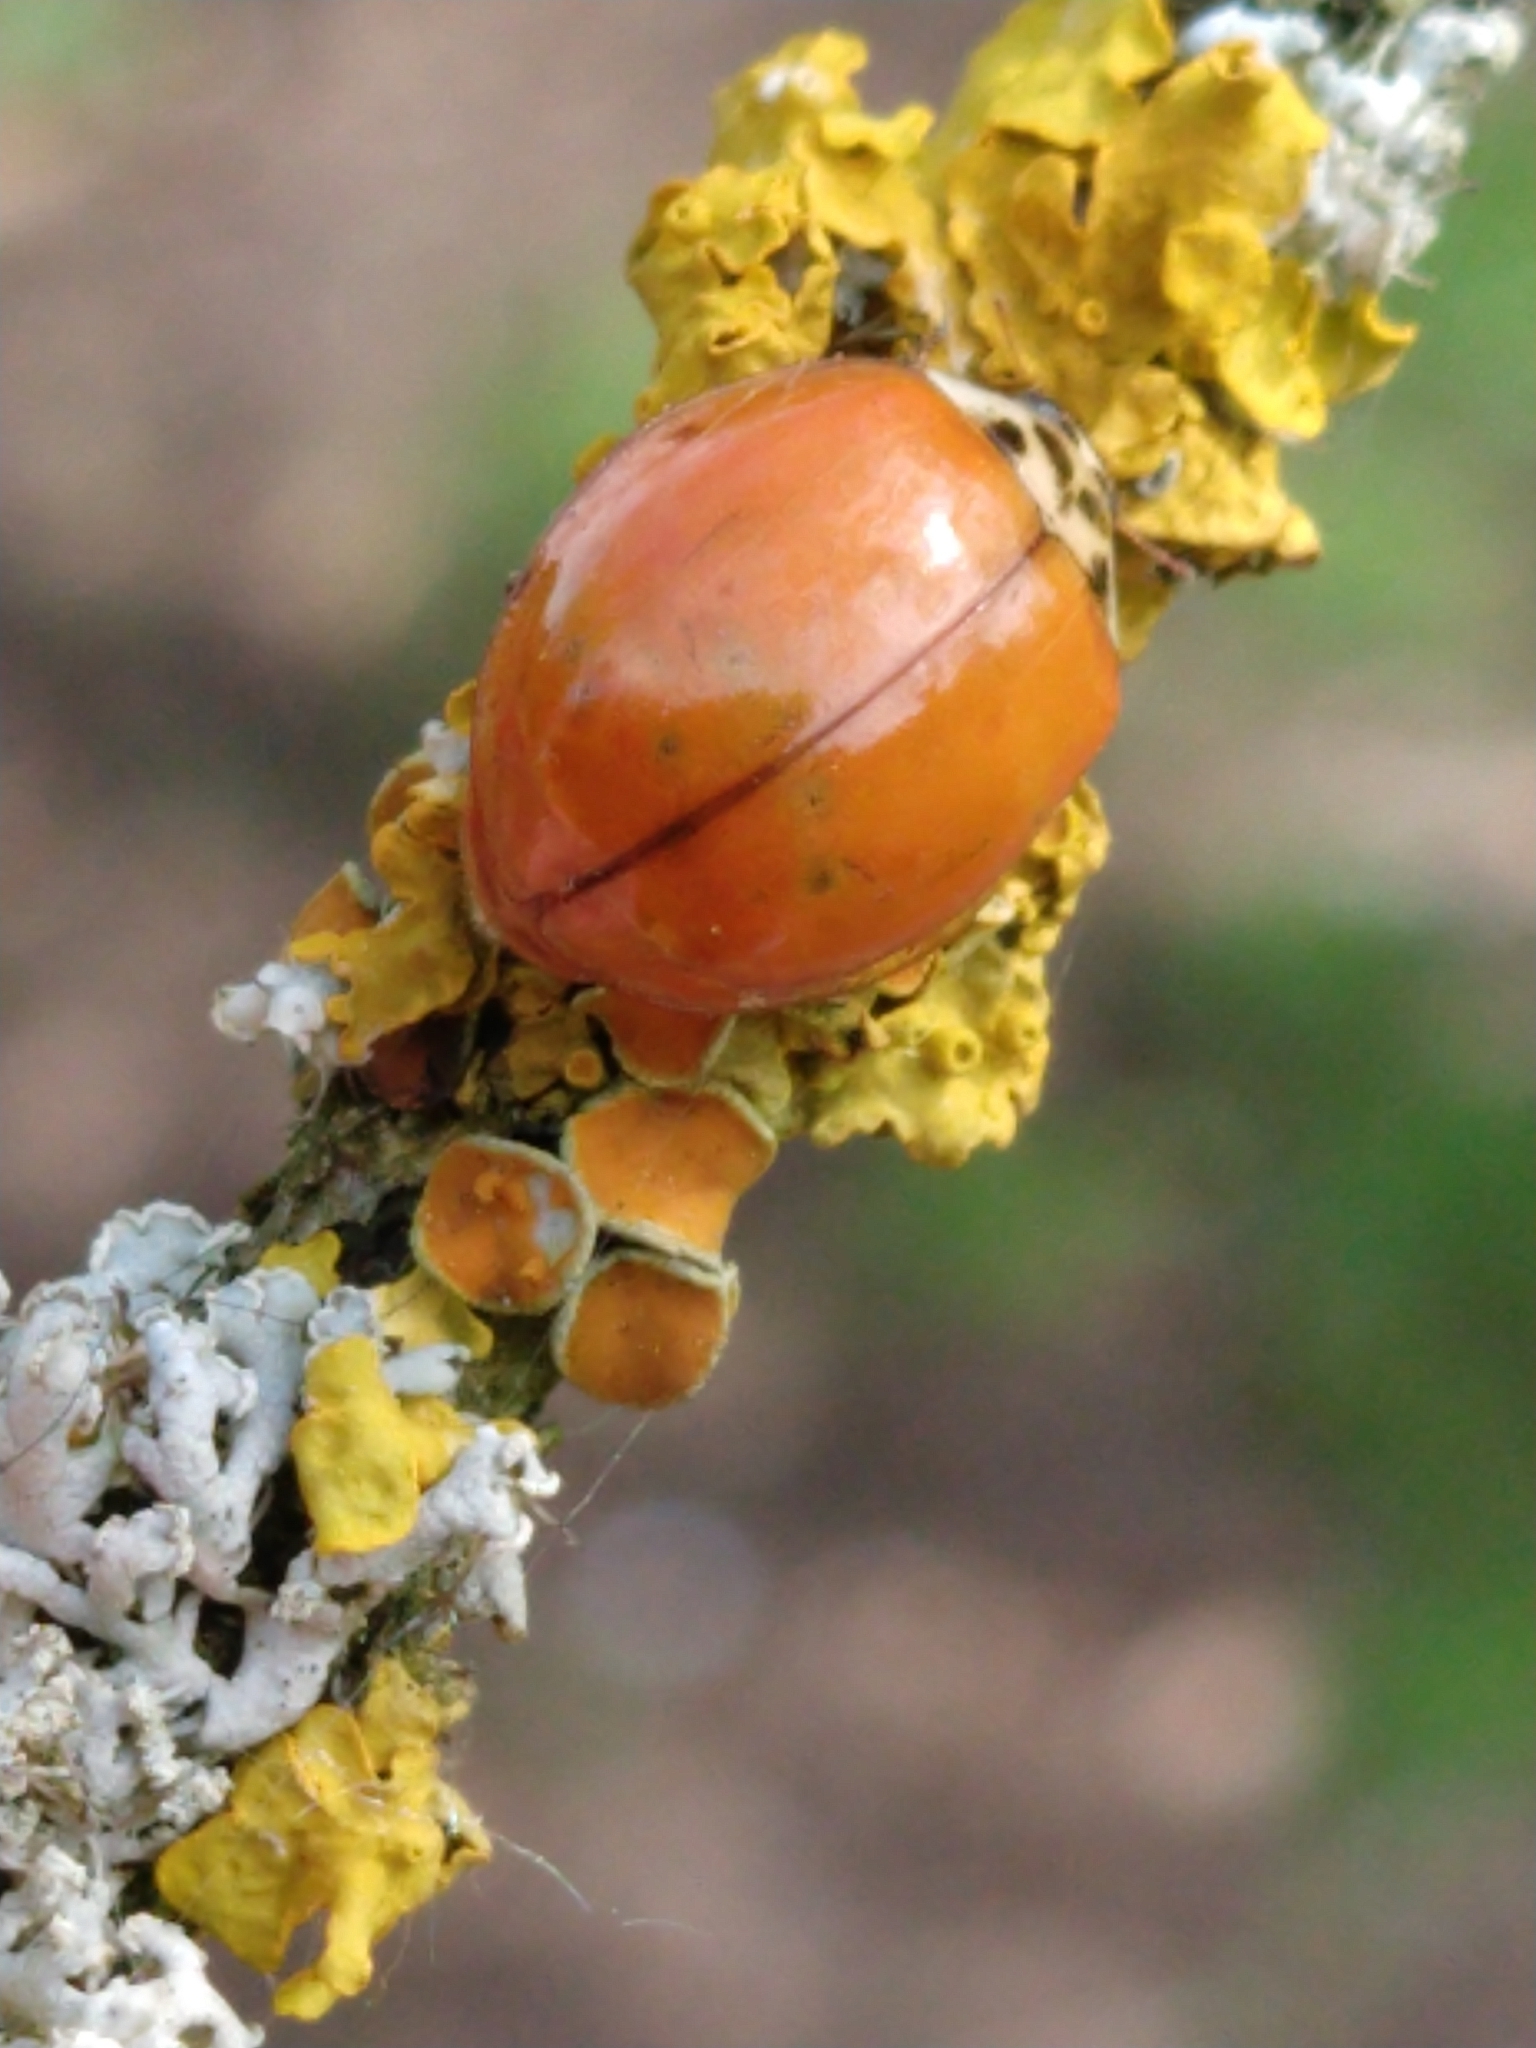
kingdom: Animalia
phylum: Arthropoda
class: Insecta
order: Coleoptera
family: Coccinellidae
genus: Harmonia
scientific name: Harmonia axyridis
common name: Harlequin ladybird
